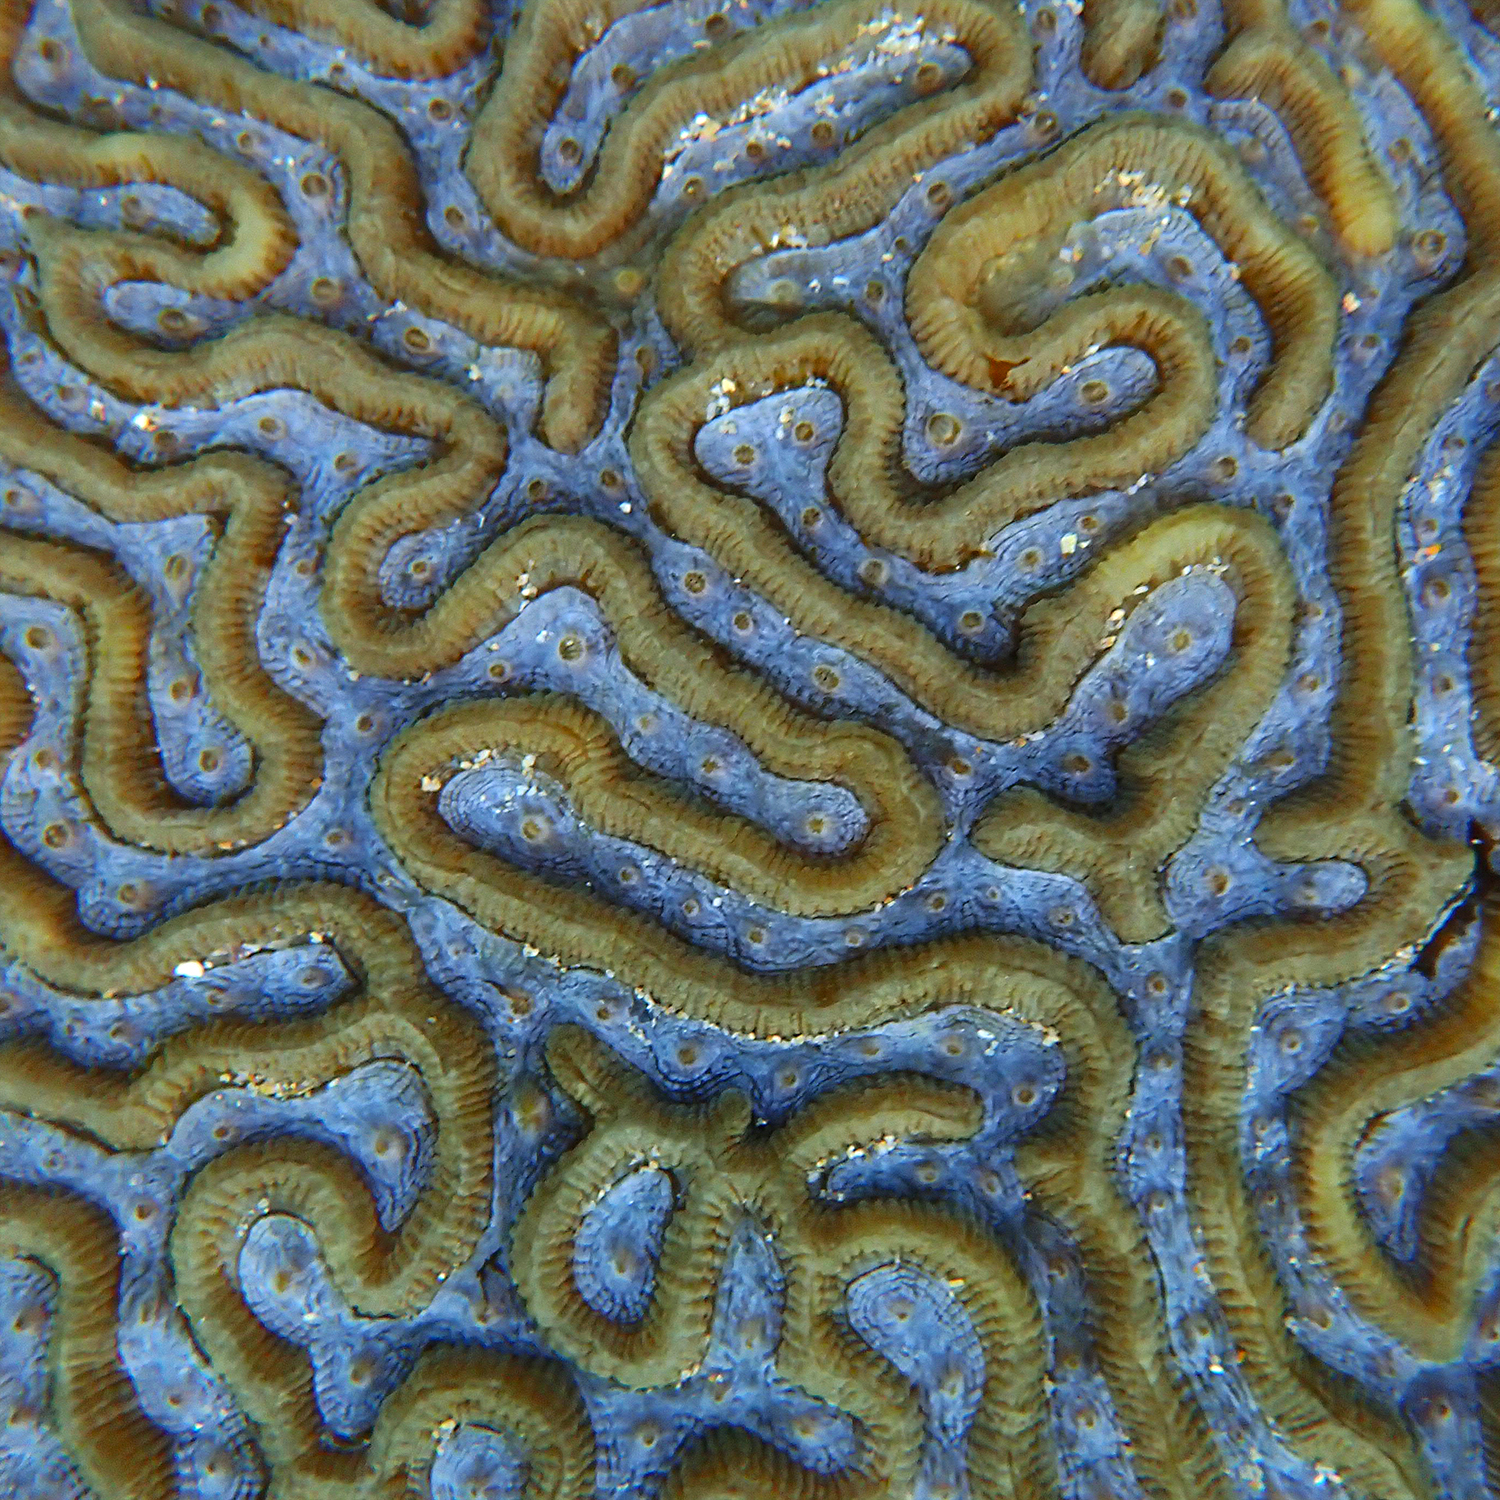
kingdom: Animalia
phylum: Cnidaria
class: Anthozoa
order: Scleractinia
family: Merulinidae
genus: Paragoniastrea
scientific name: Paragoniastrea australensis
